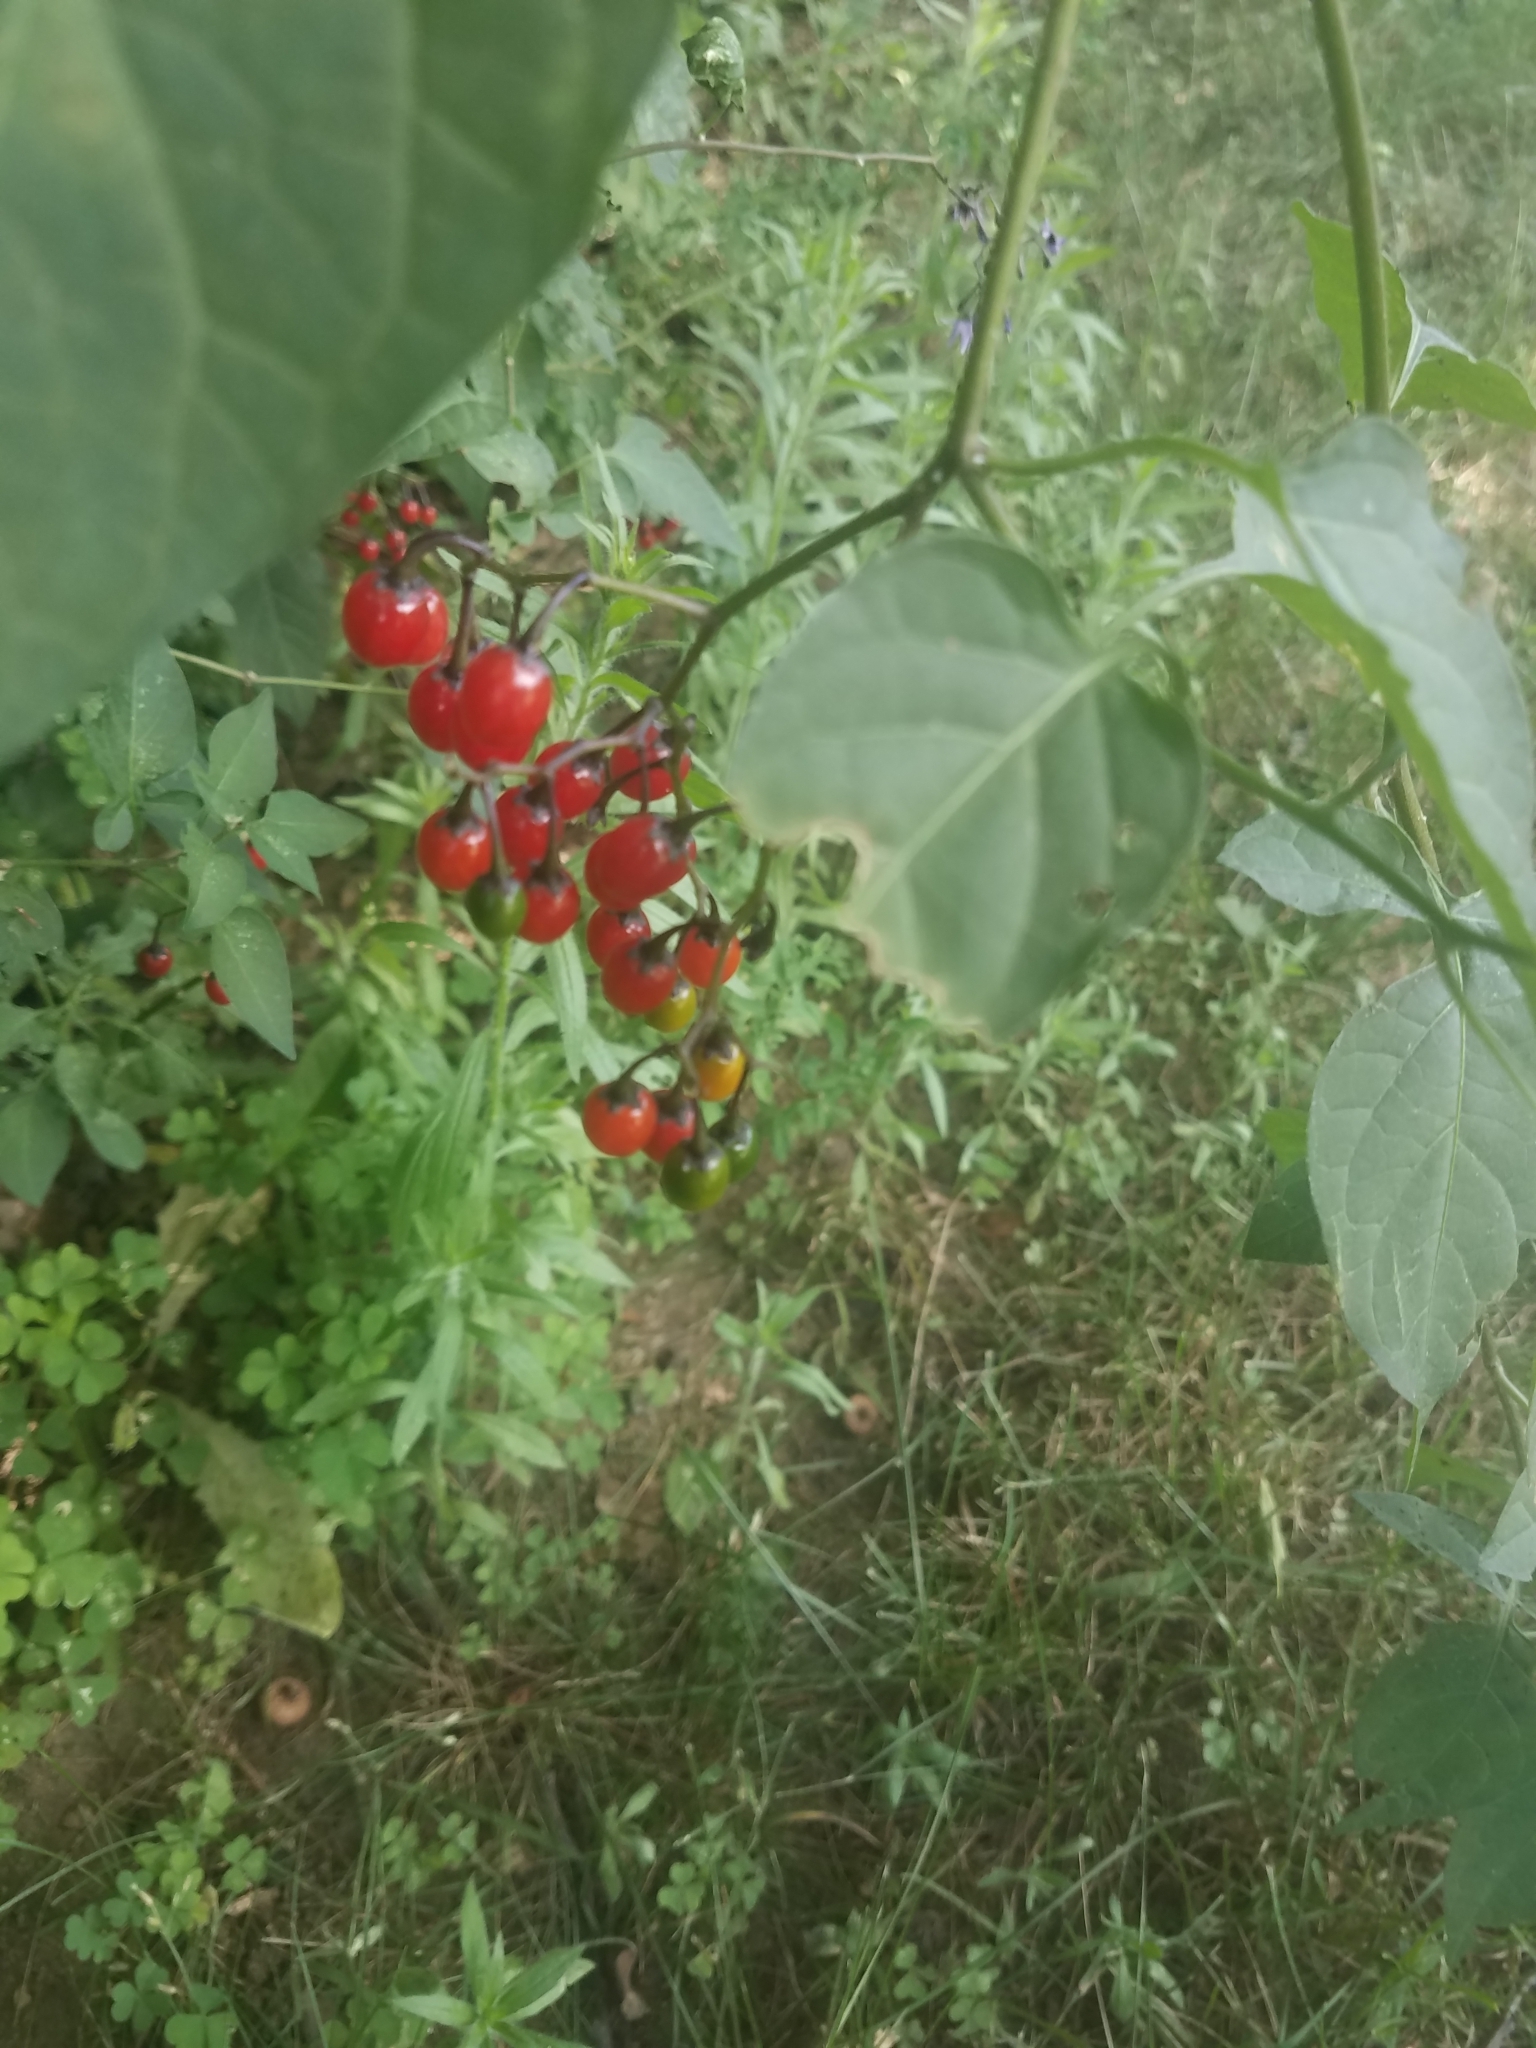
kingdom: Plantae
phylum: Tracheophyta
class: Magnoliopsida
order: Solanales
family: Solanaceae
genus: Solanum
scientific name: Solanum dulcamara
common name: Climbing nightshade
